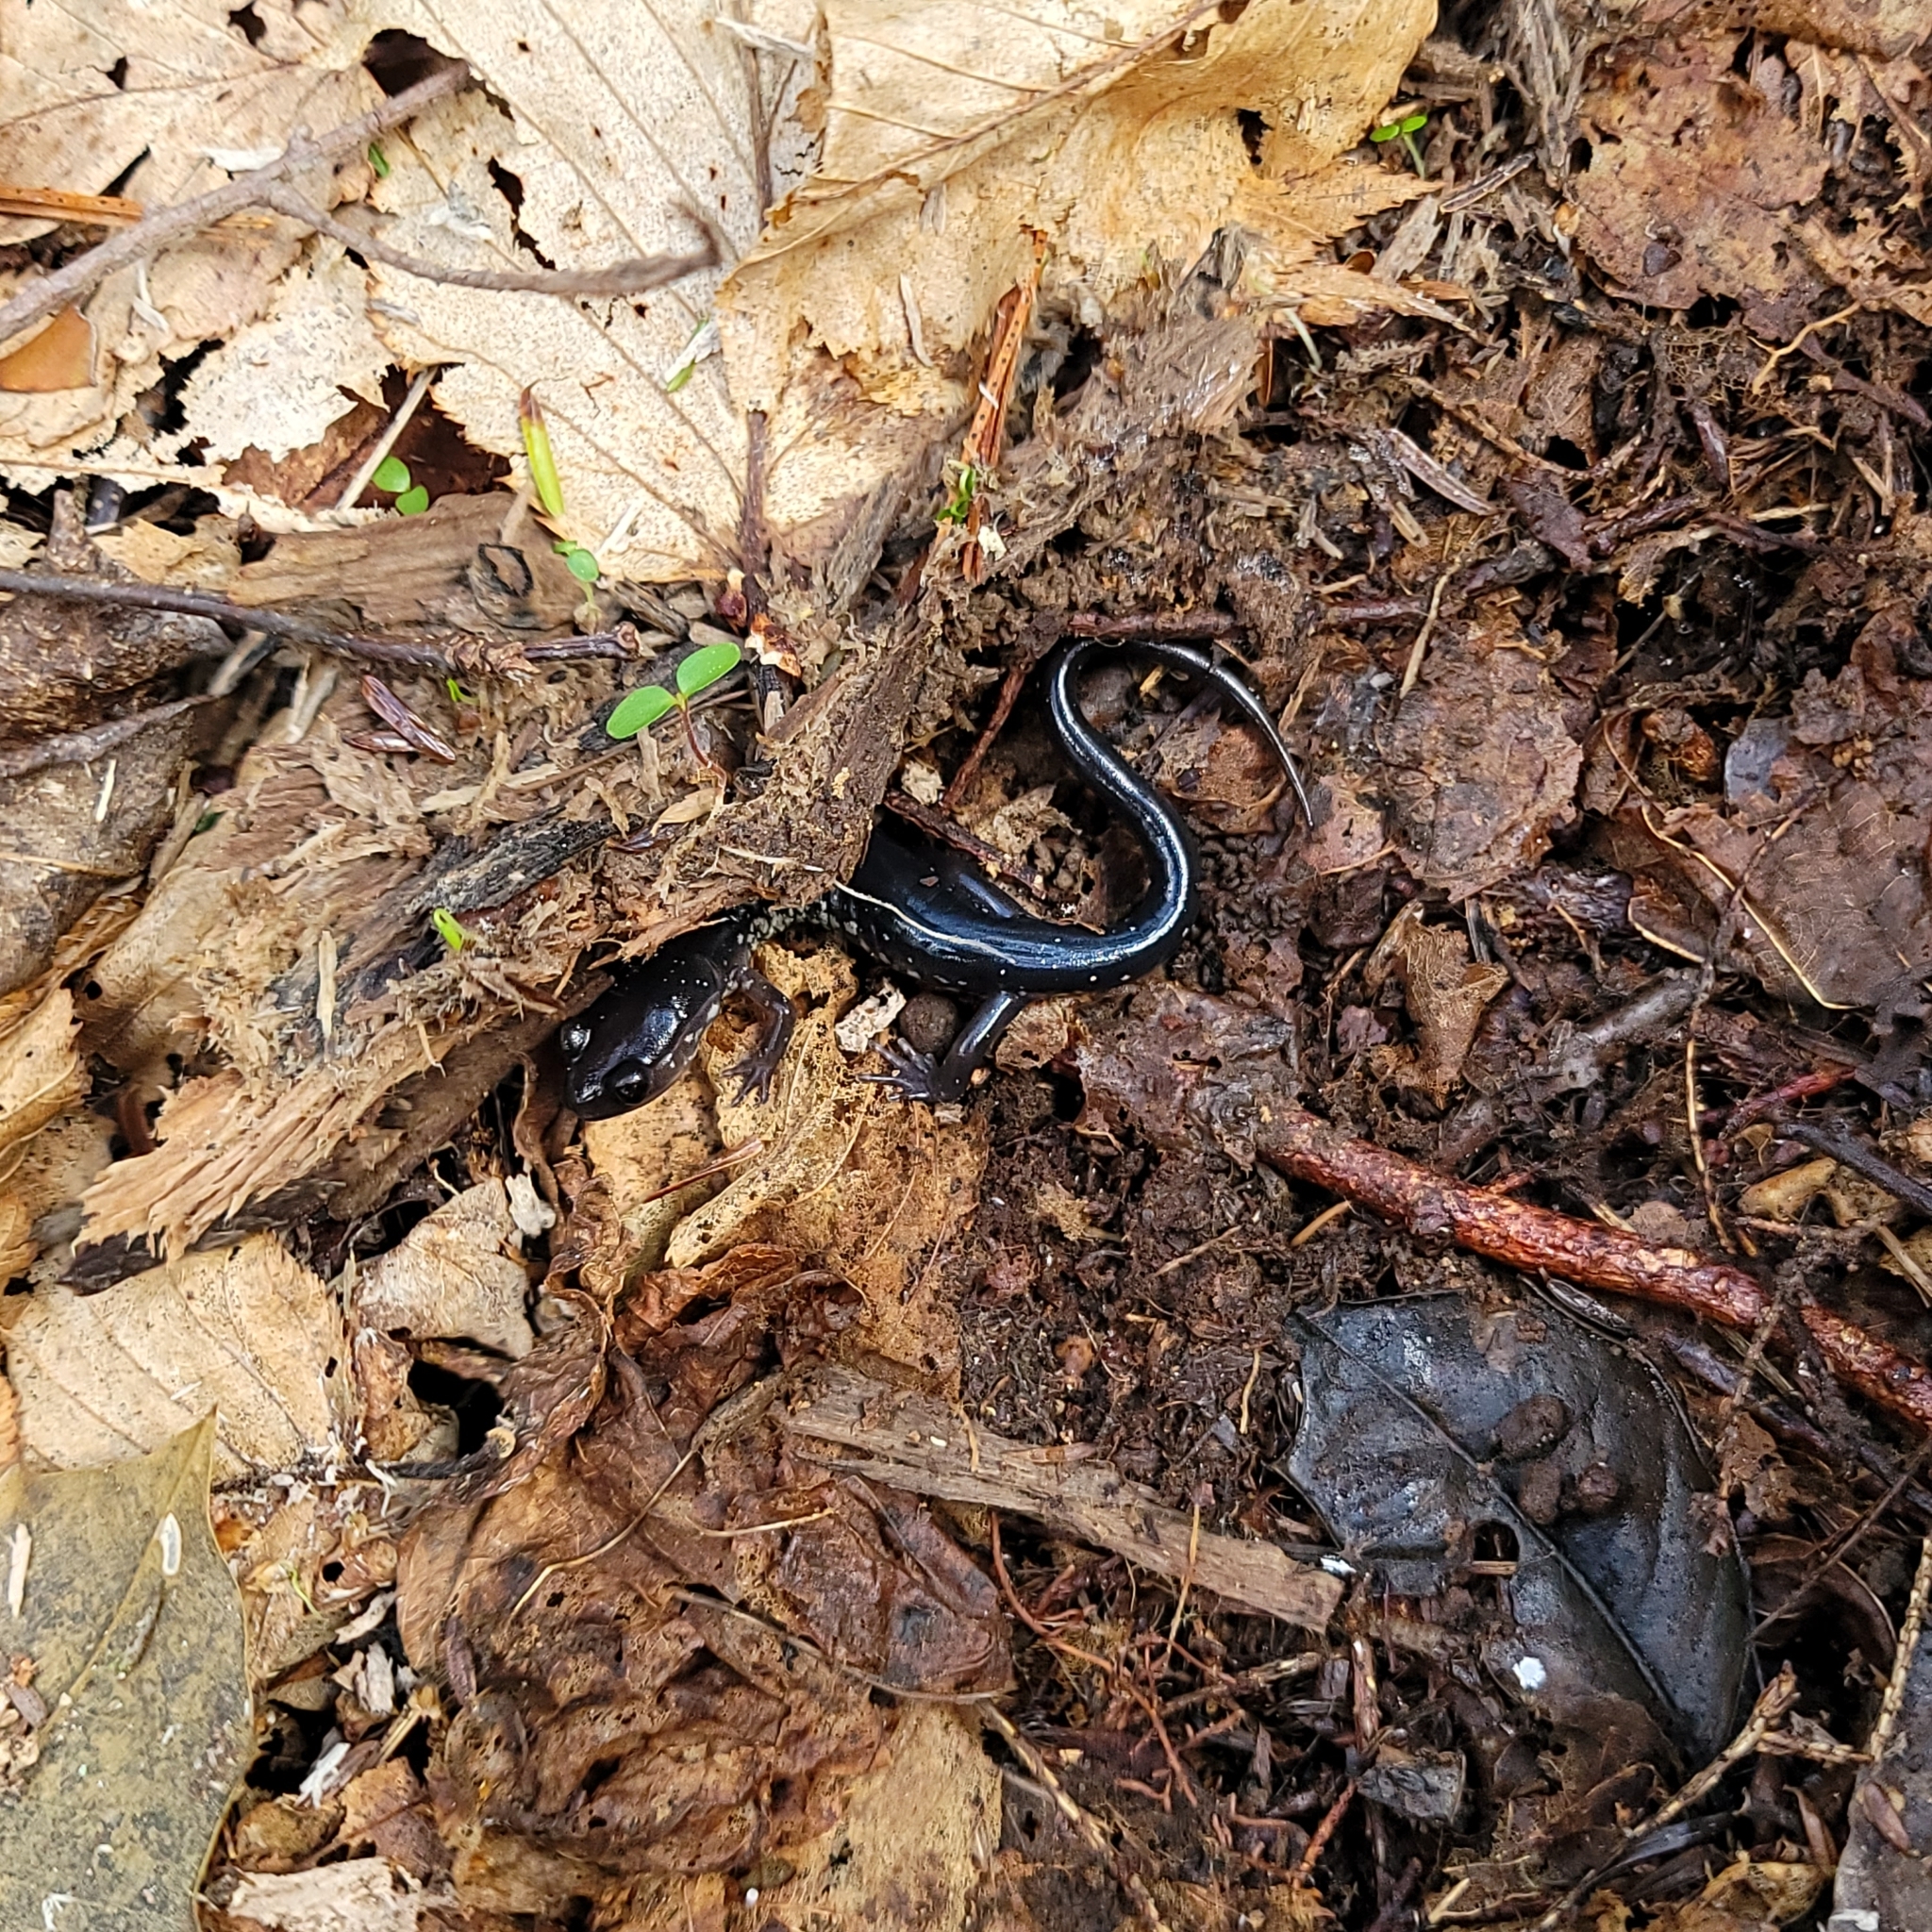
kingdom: Animalia
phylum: Chordata
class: Amphibia
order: Caudata
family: Plethodontidae
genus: Plethodon
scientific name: Plethodon chattahoochee
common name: Chattahoochee slimy salamander
